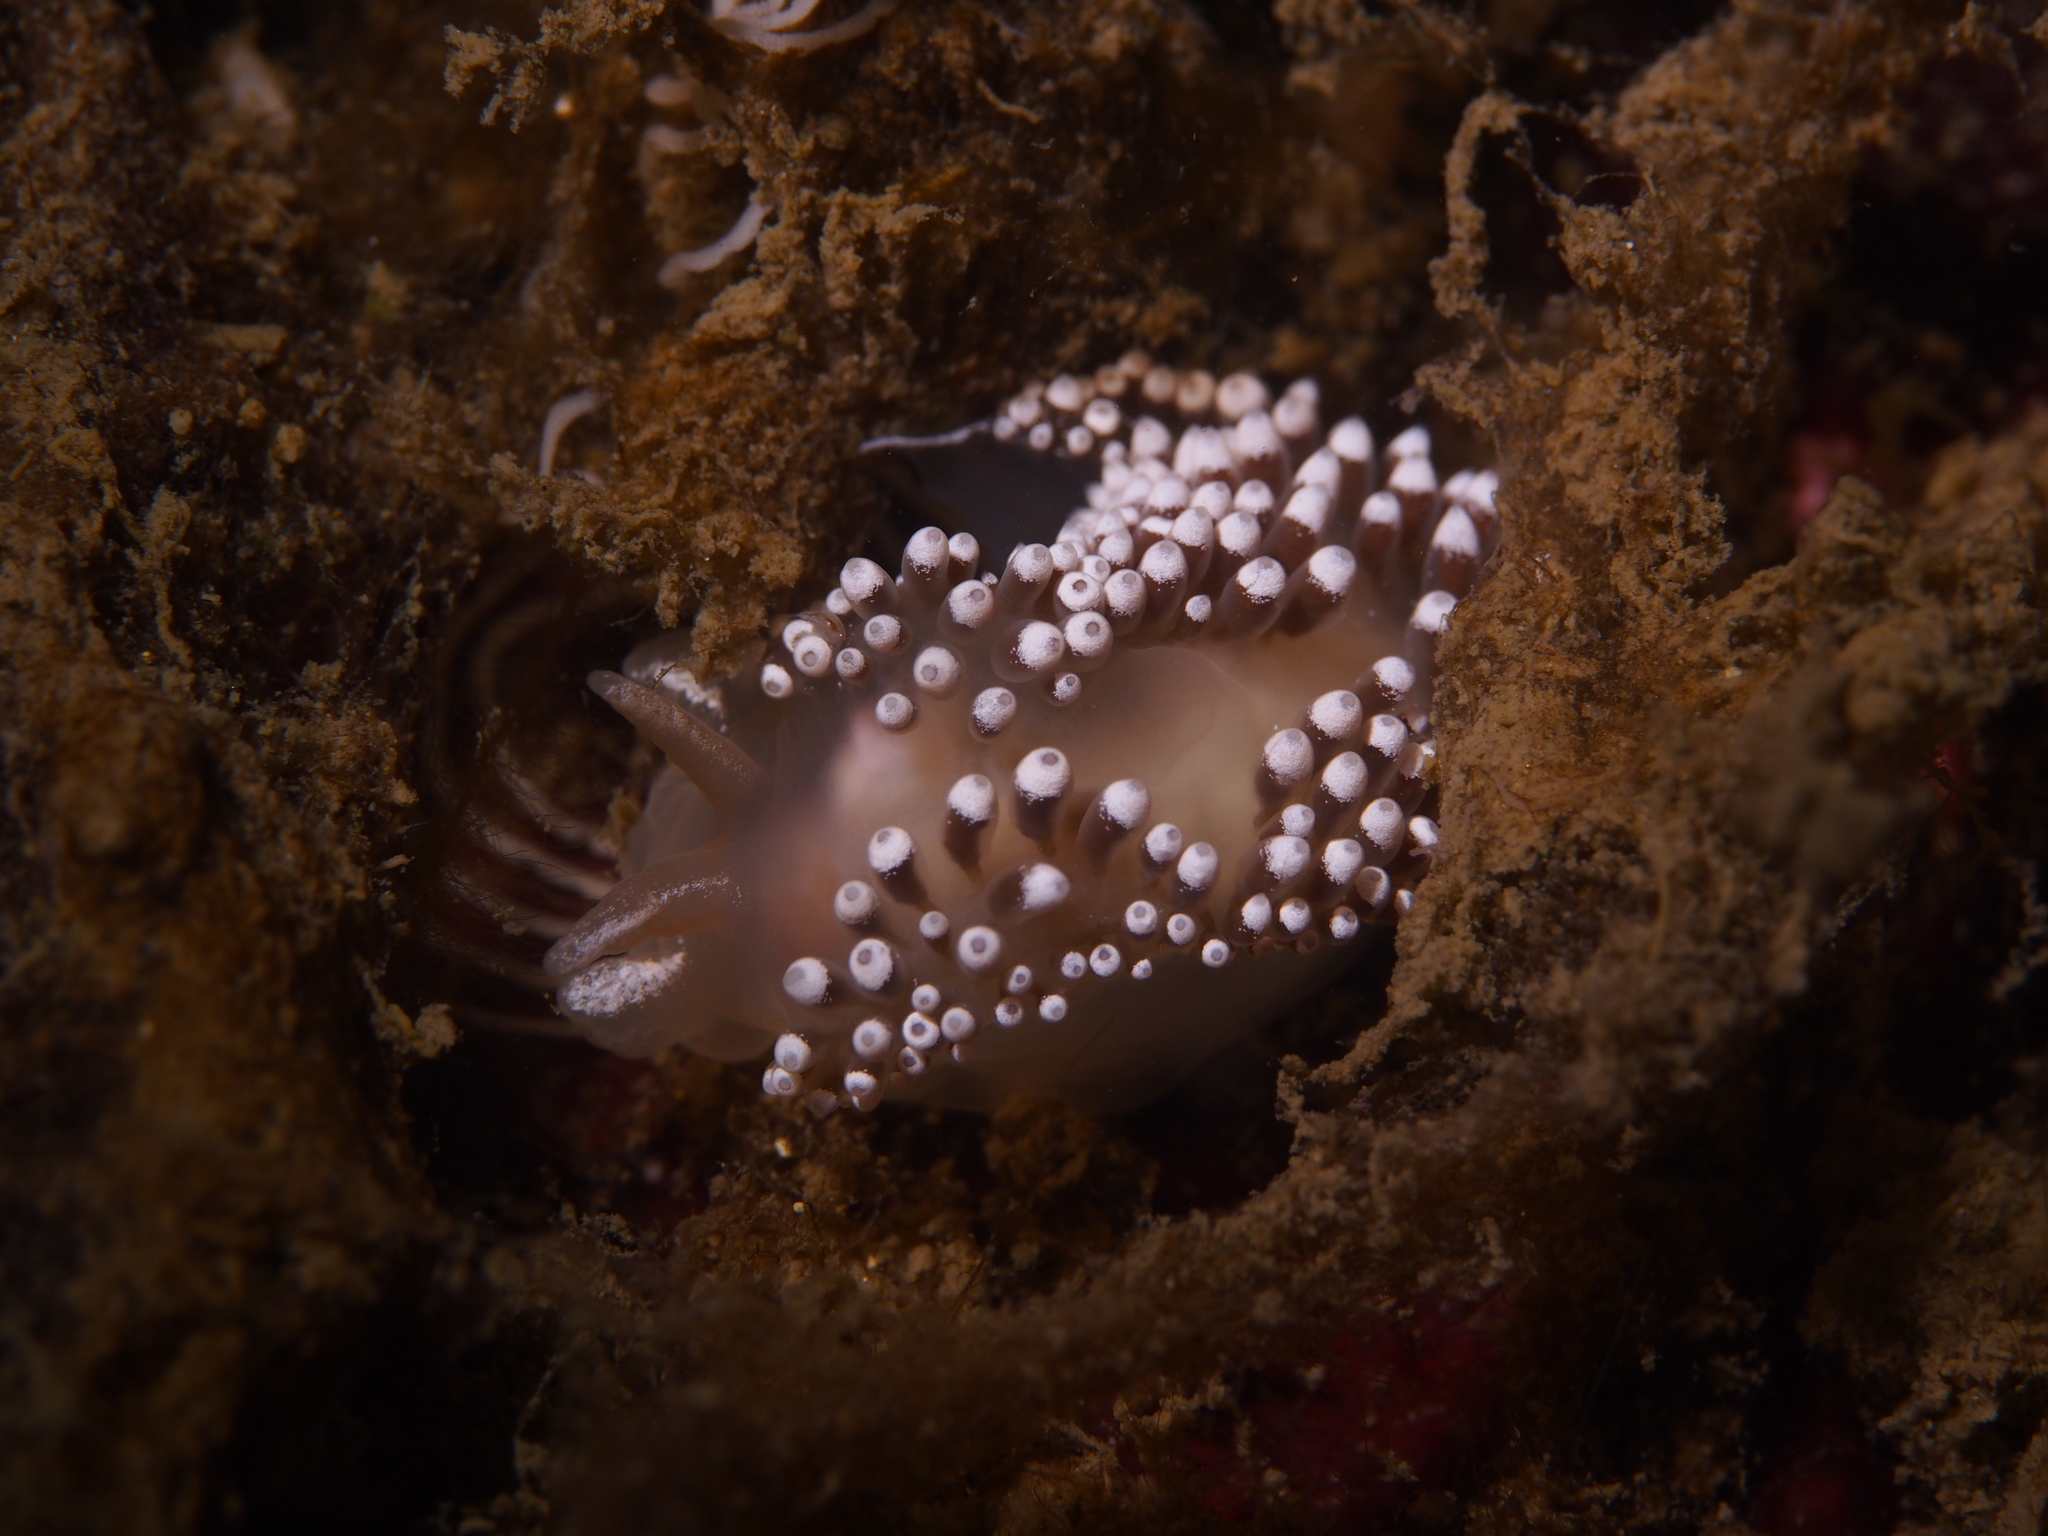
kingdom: Animalia
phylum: Mollusca
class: Gastropoda
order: Nudibranchia
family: Coryphellidae
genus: Coryphella
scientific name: Coryphella verrucosa
